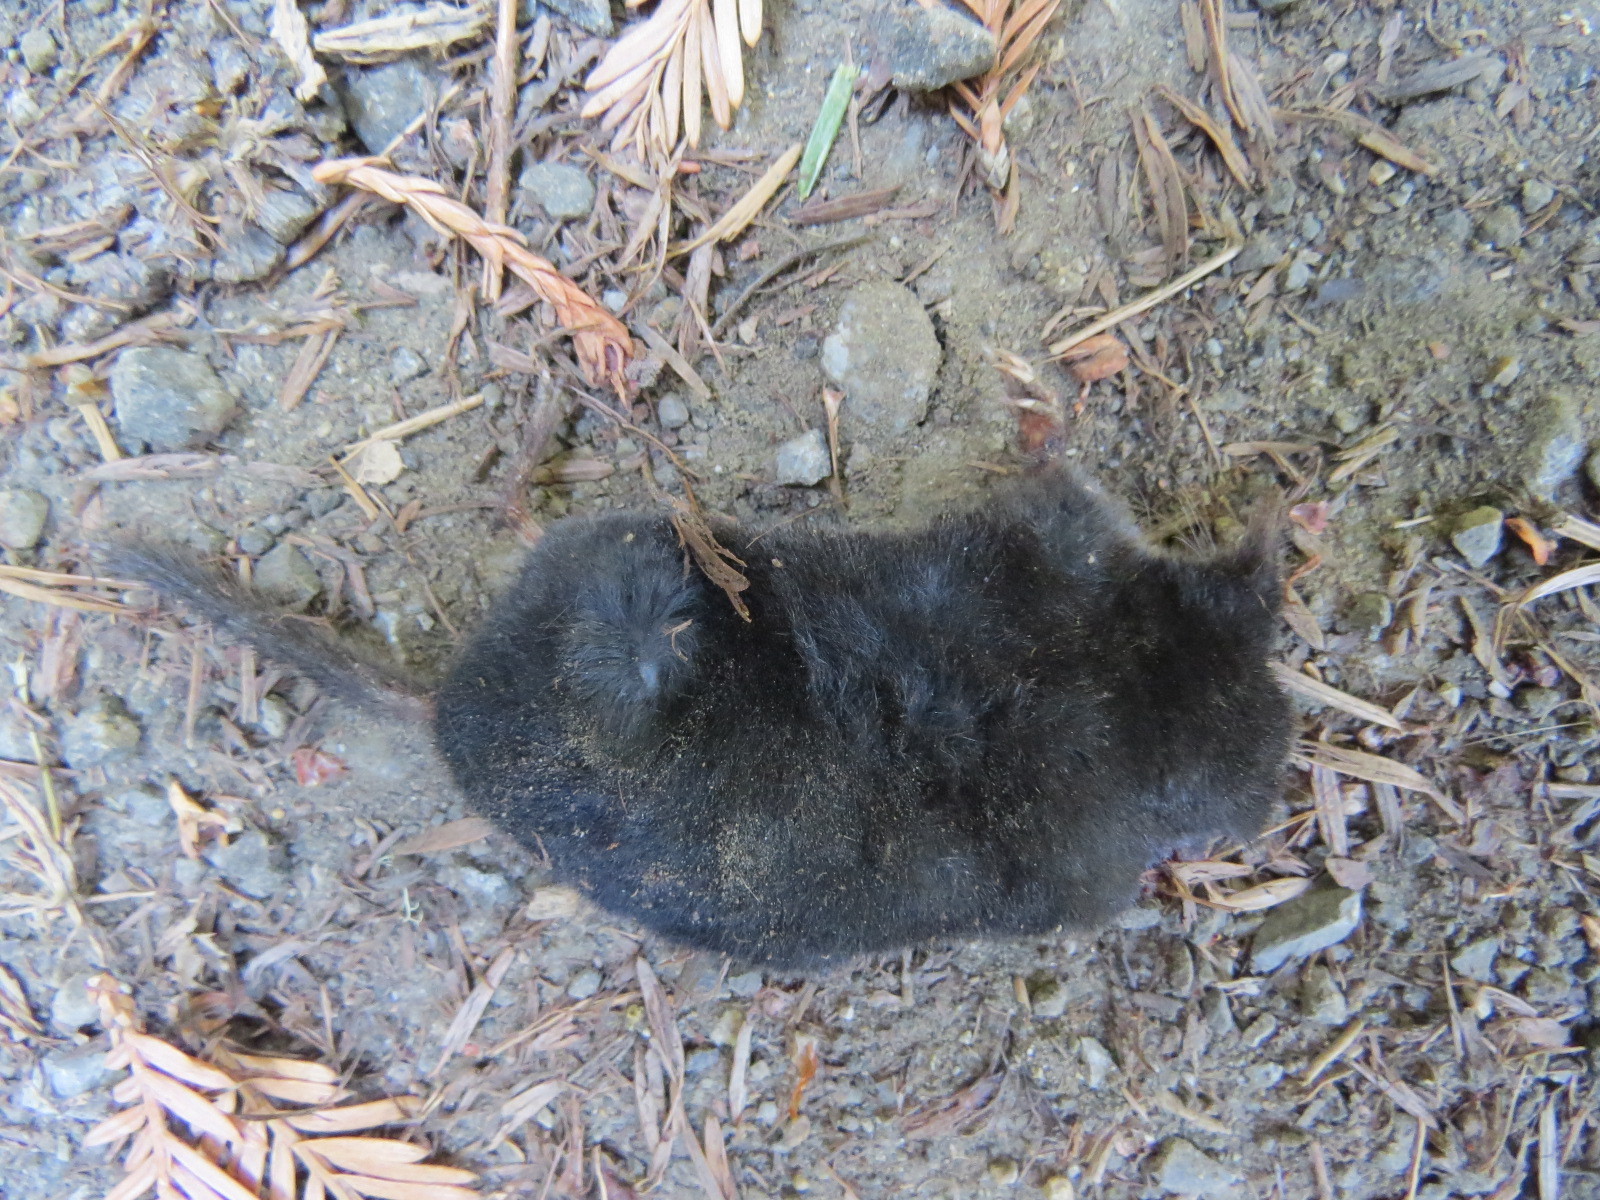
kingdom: Animalia
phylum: Chordata
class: Mammalia
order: Soricomorpha
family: Talpidae
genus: Neurotrichus
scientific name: Neurotrichus gibbsii
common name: American shrew mole
